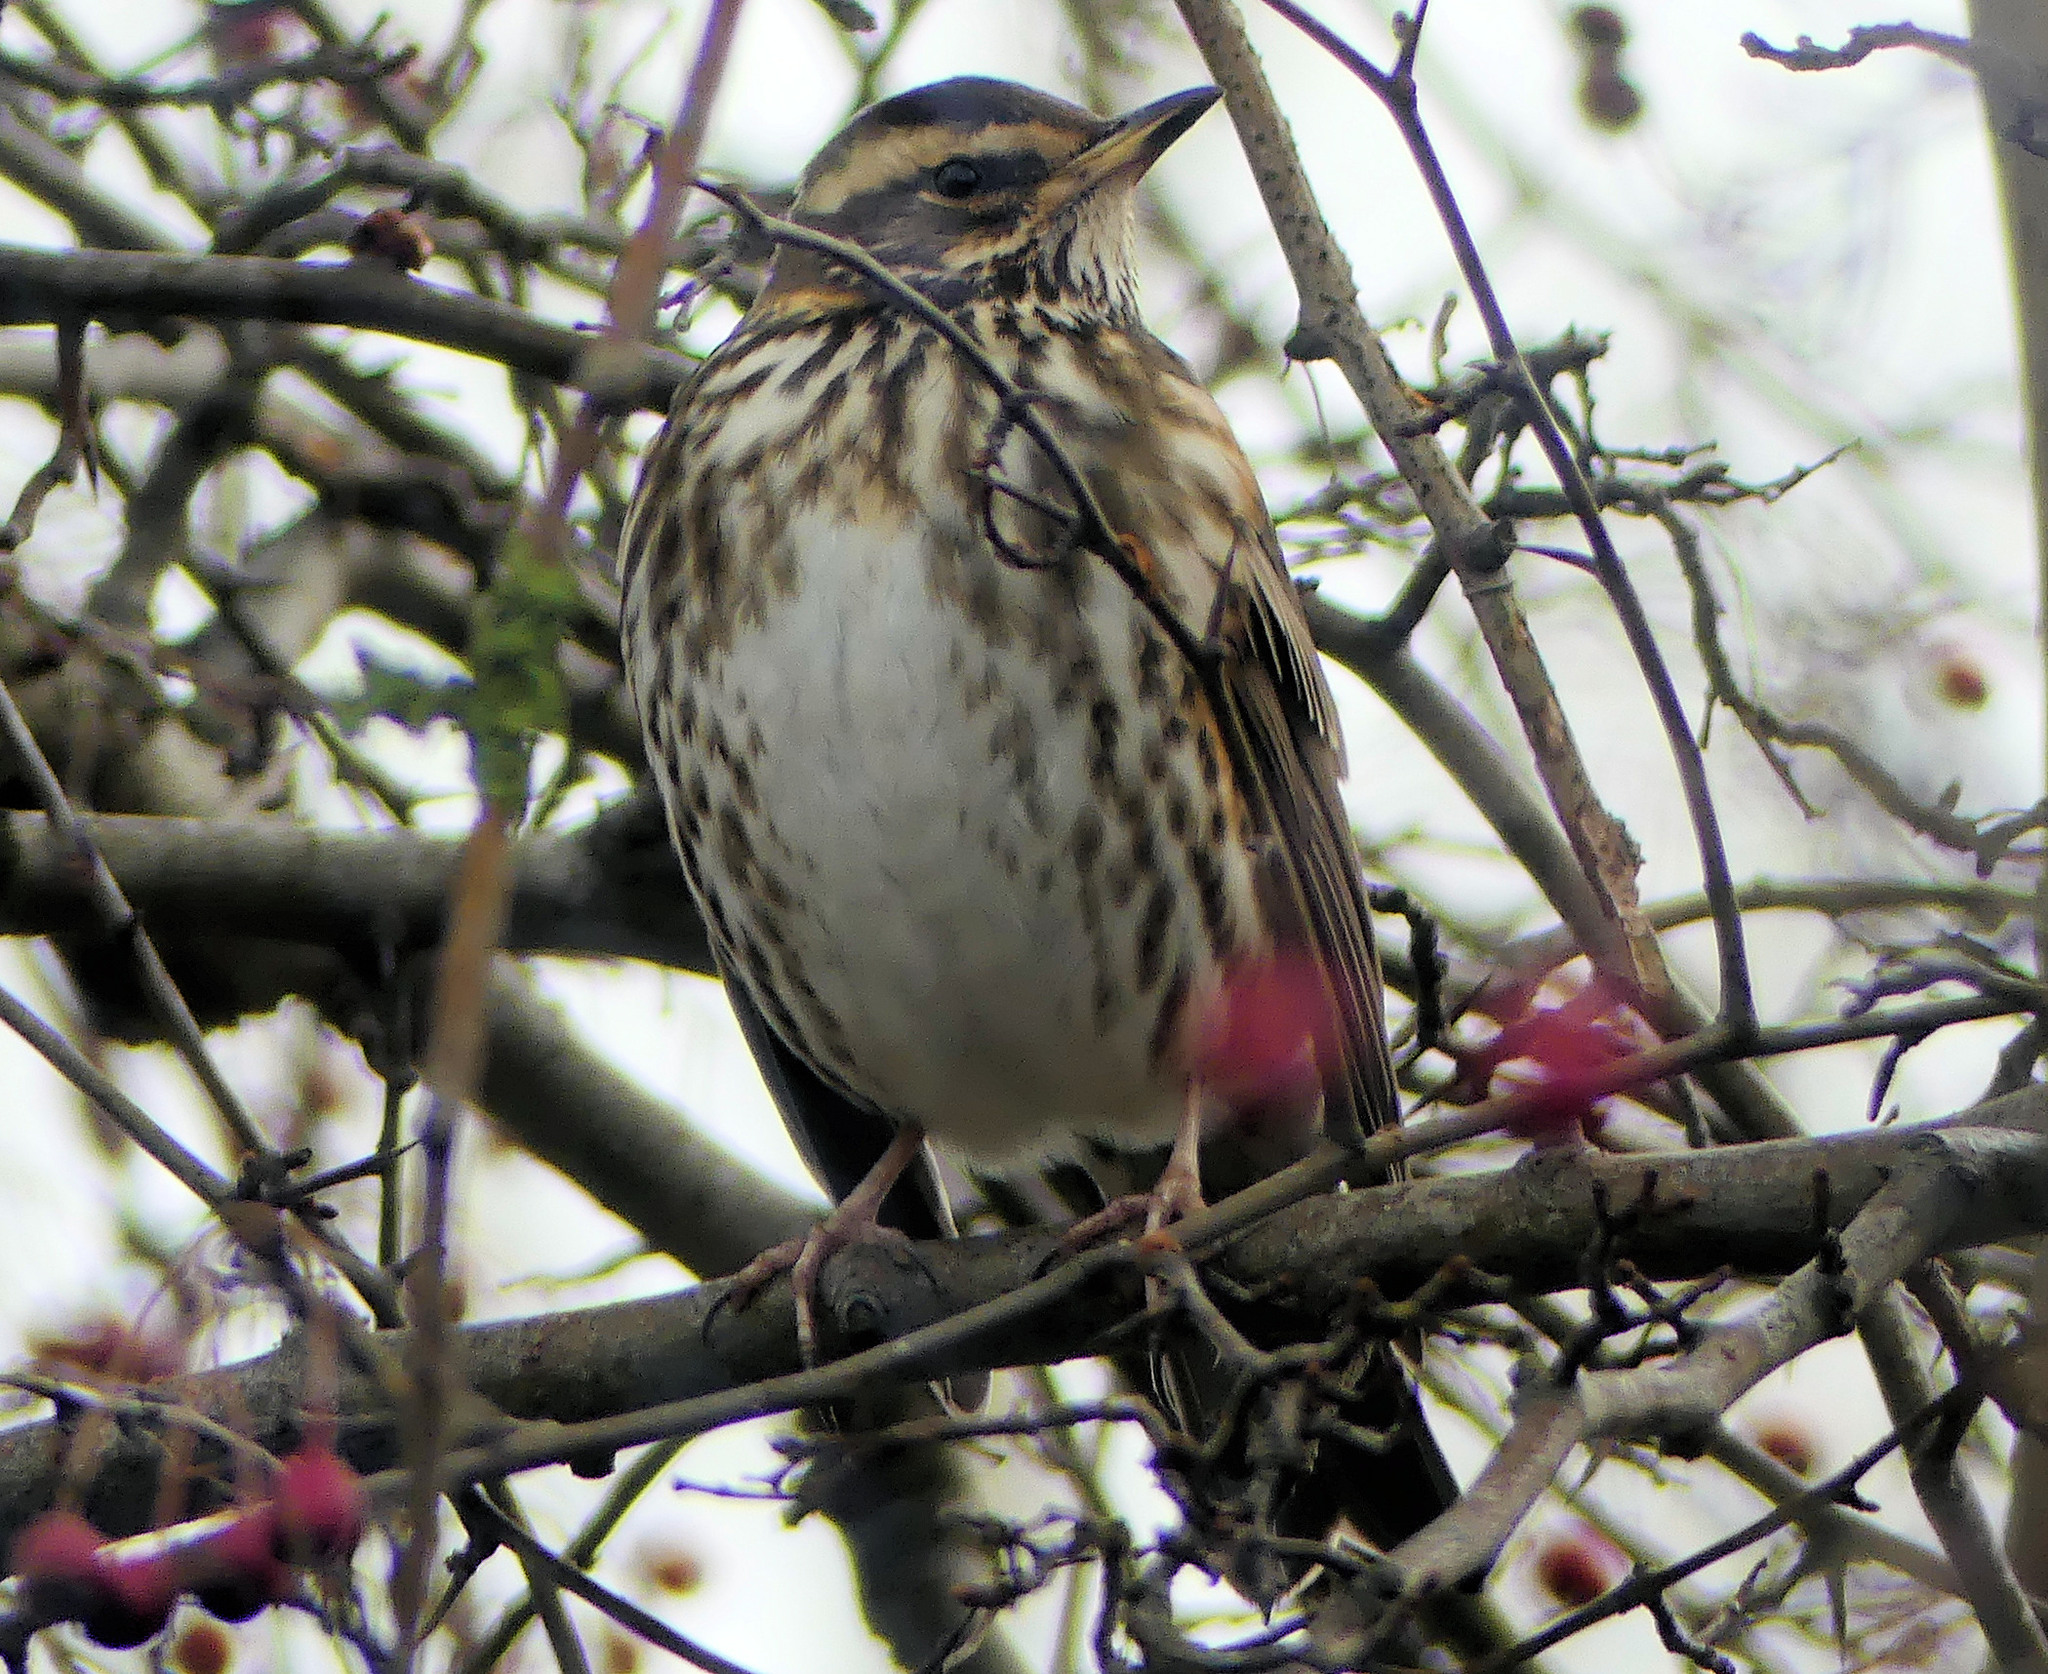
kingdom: Animalia
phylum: Chordata
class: Aves
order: Passeriformes
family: Turdidae
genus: Turdus
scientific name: Turdus iliacus
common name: Redwing
